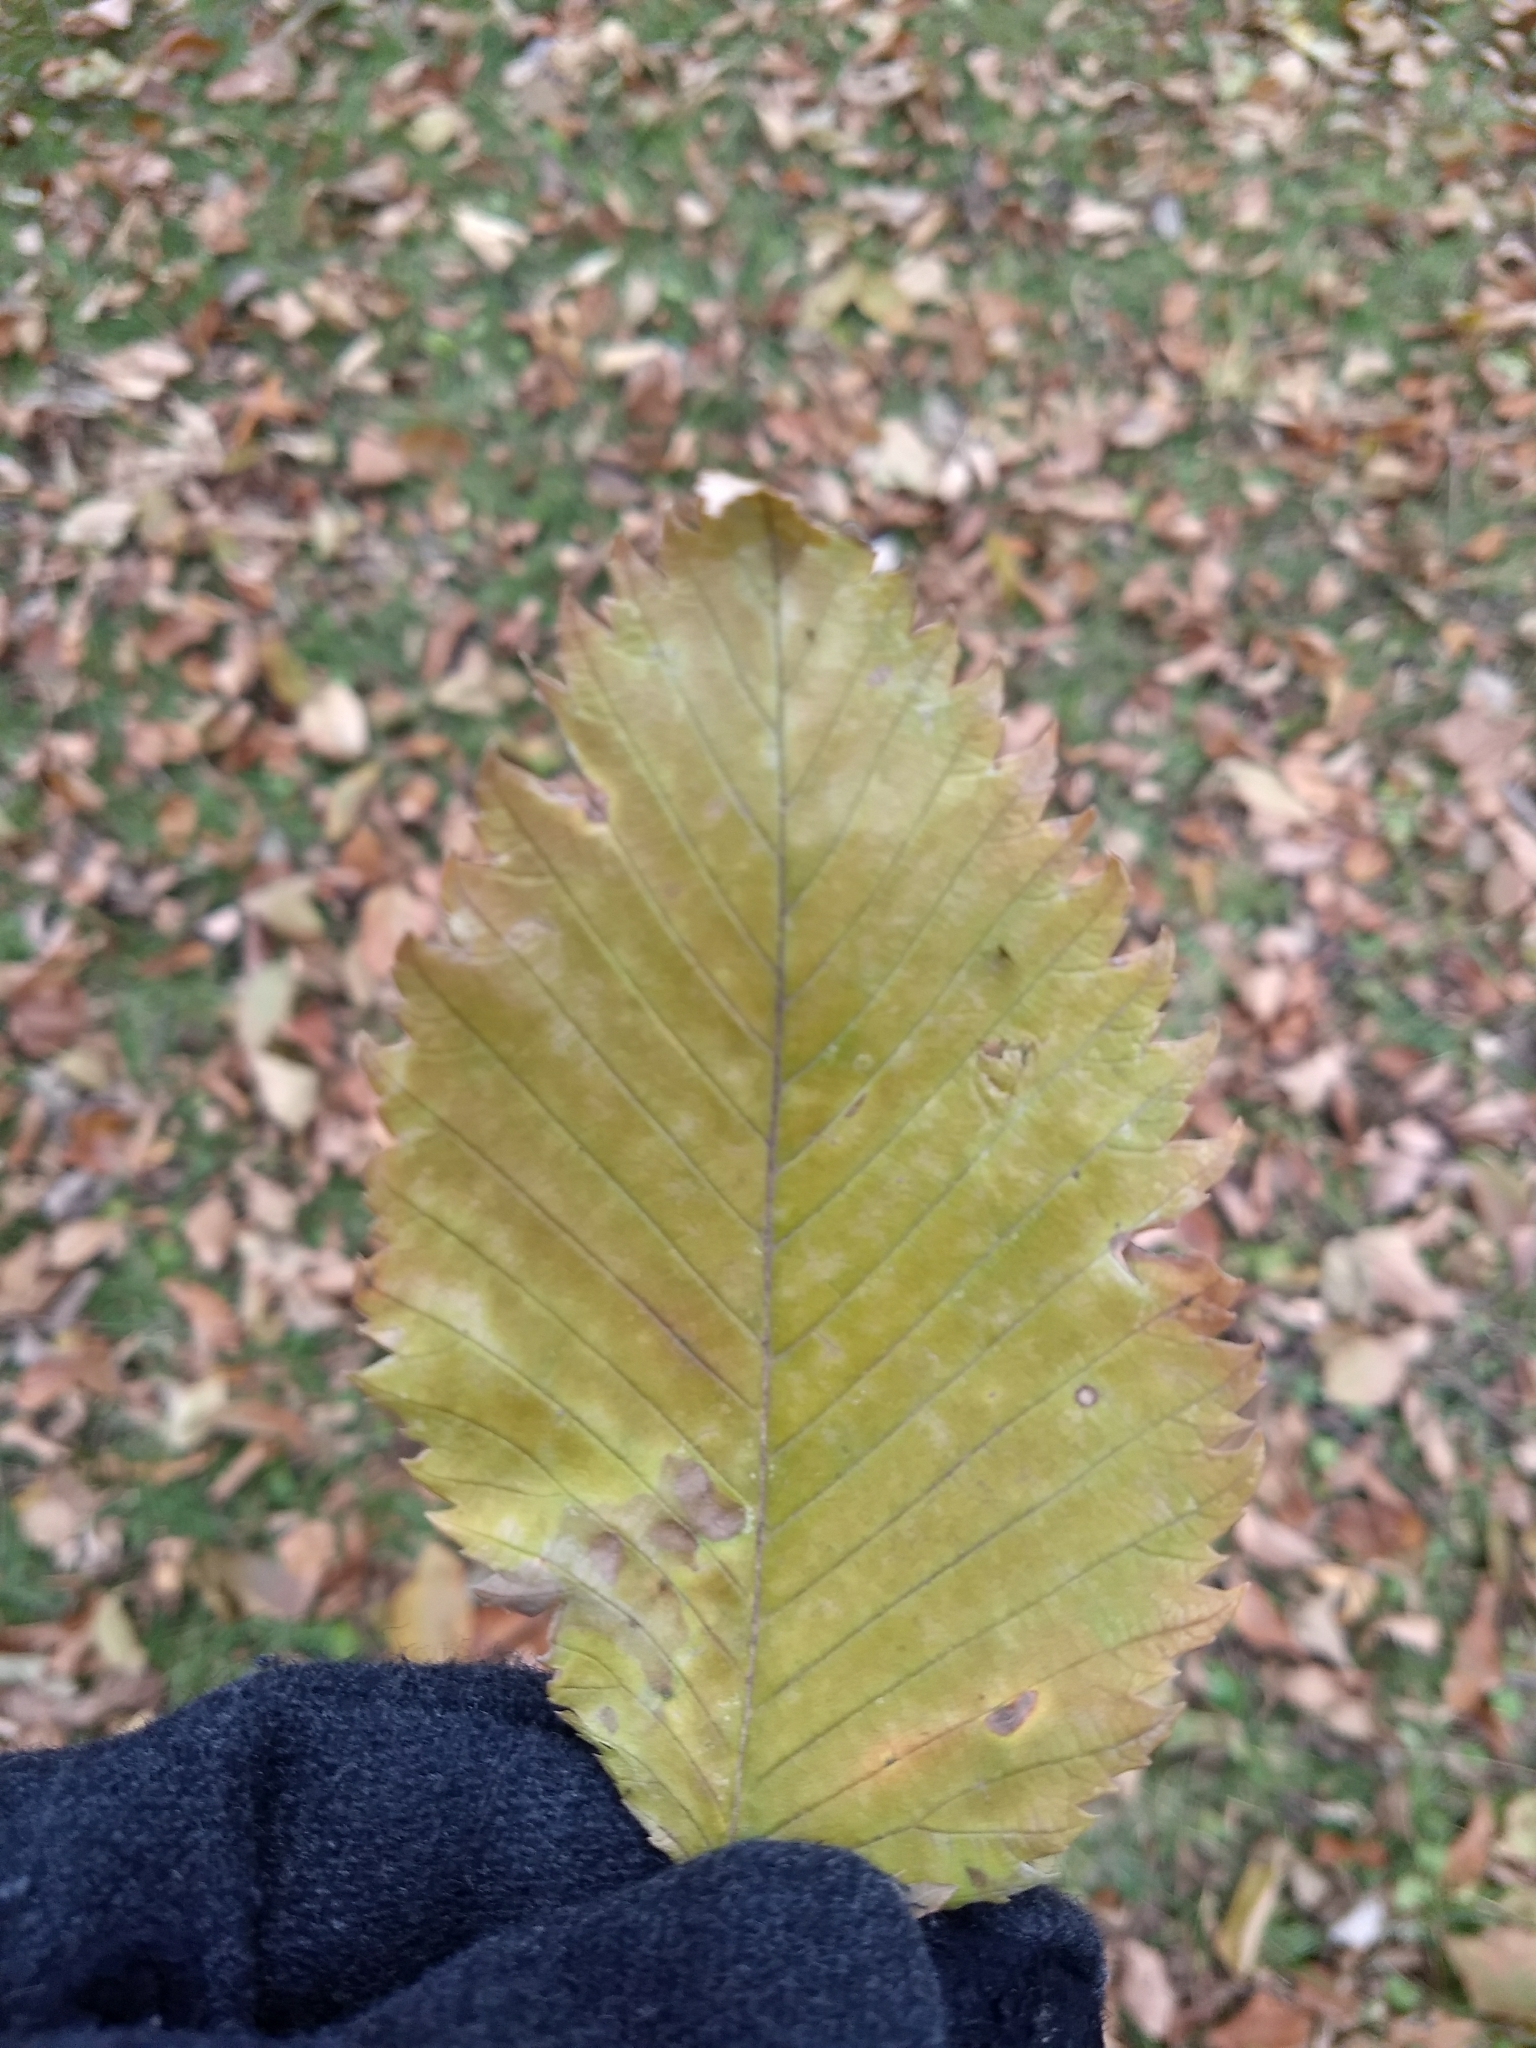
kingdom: Plantae
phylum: Tracheophyta
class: Magnoliopsida
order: Rosales
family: Ulmaceae
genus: Ulmus
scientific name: Ulmus americana
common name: American elm
